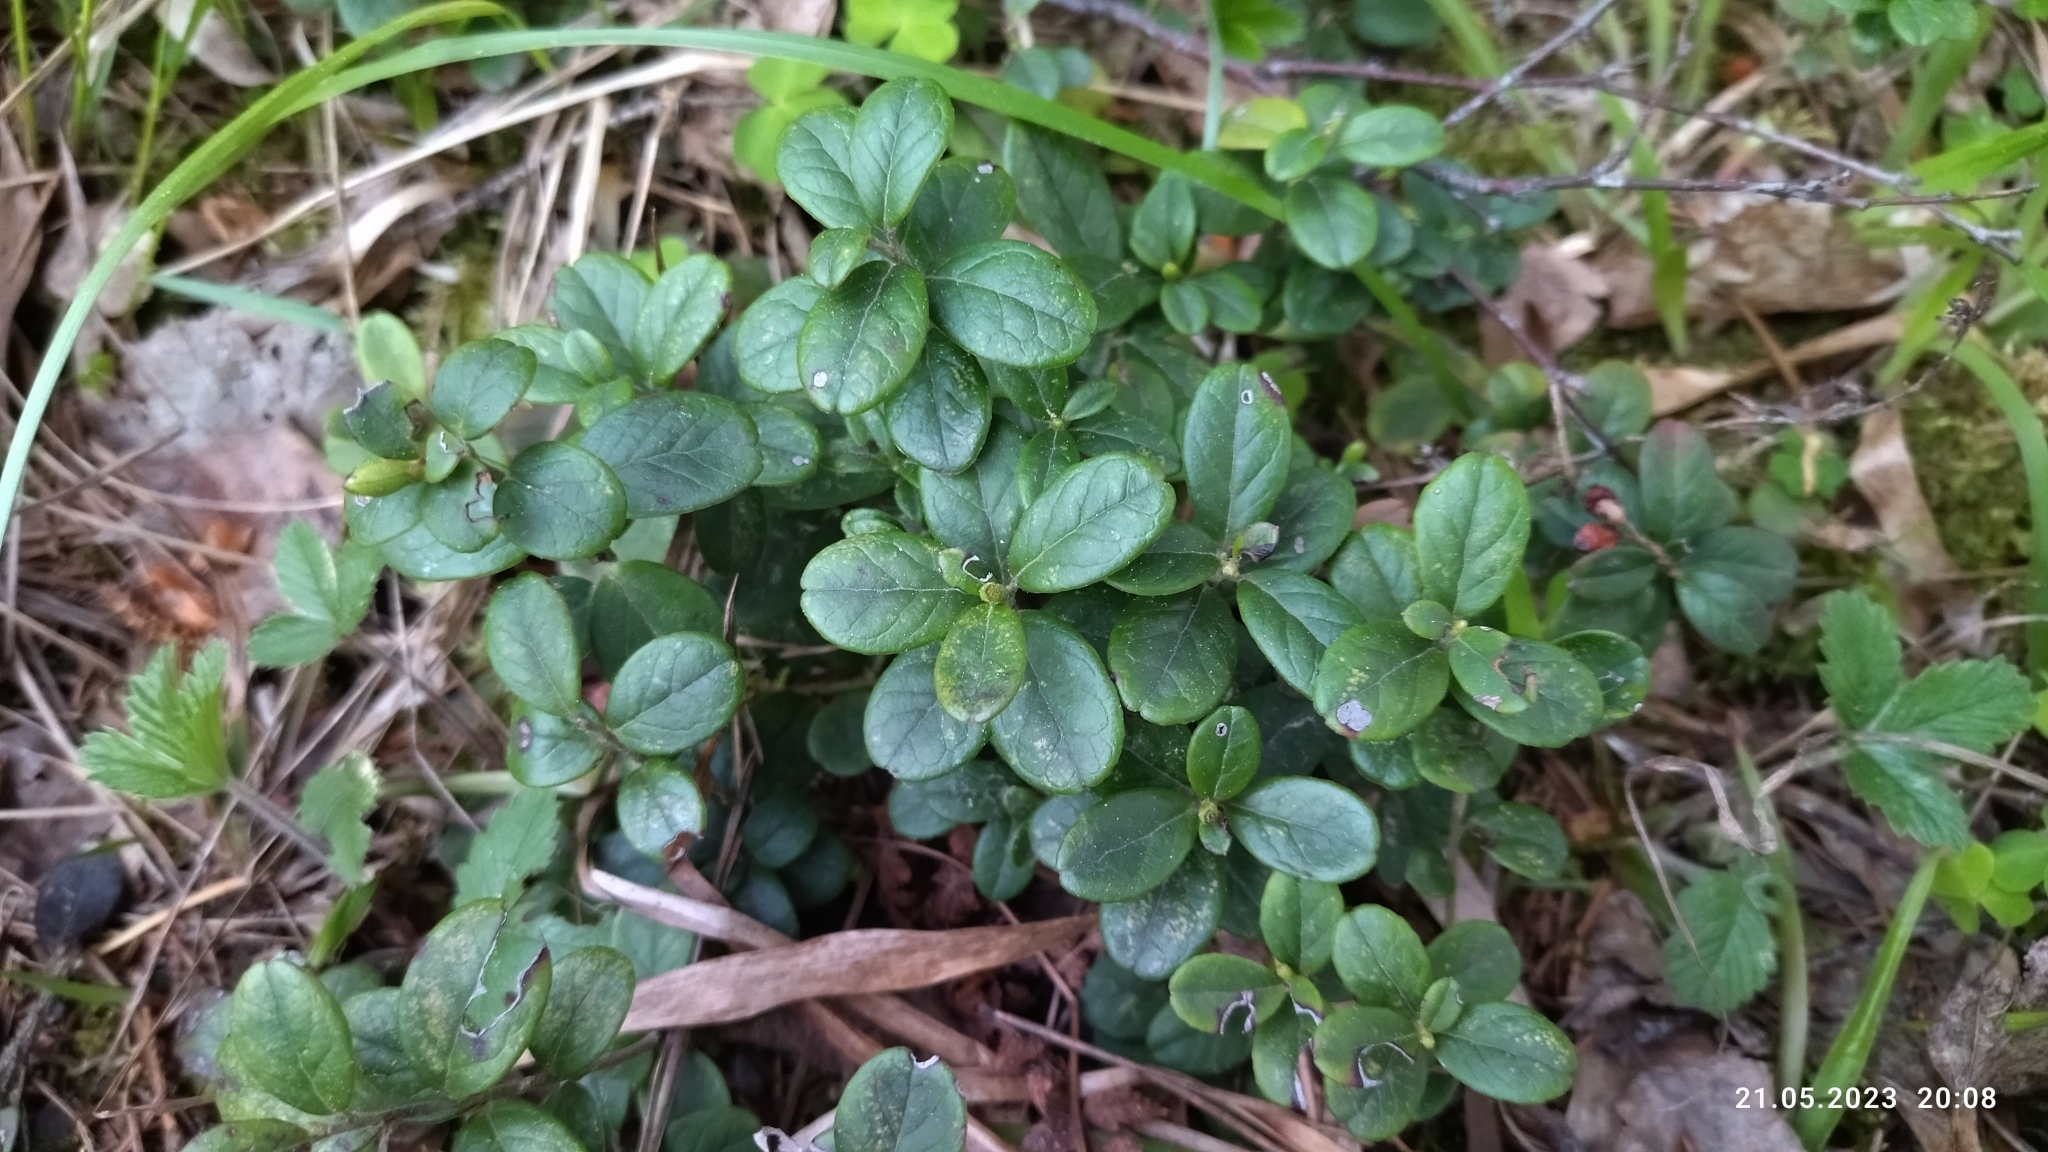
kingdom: Plantae
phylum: Tracheophyta
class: Magnoliopsida
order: Ericales
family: Ericaceae
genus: Vaccinium
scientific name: Vaccinium vitis-idaea
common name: Cowberry
